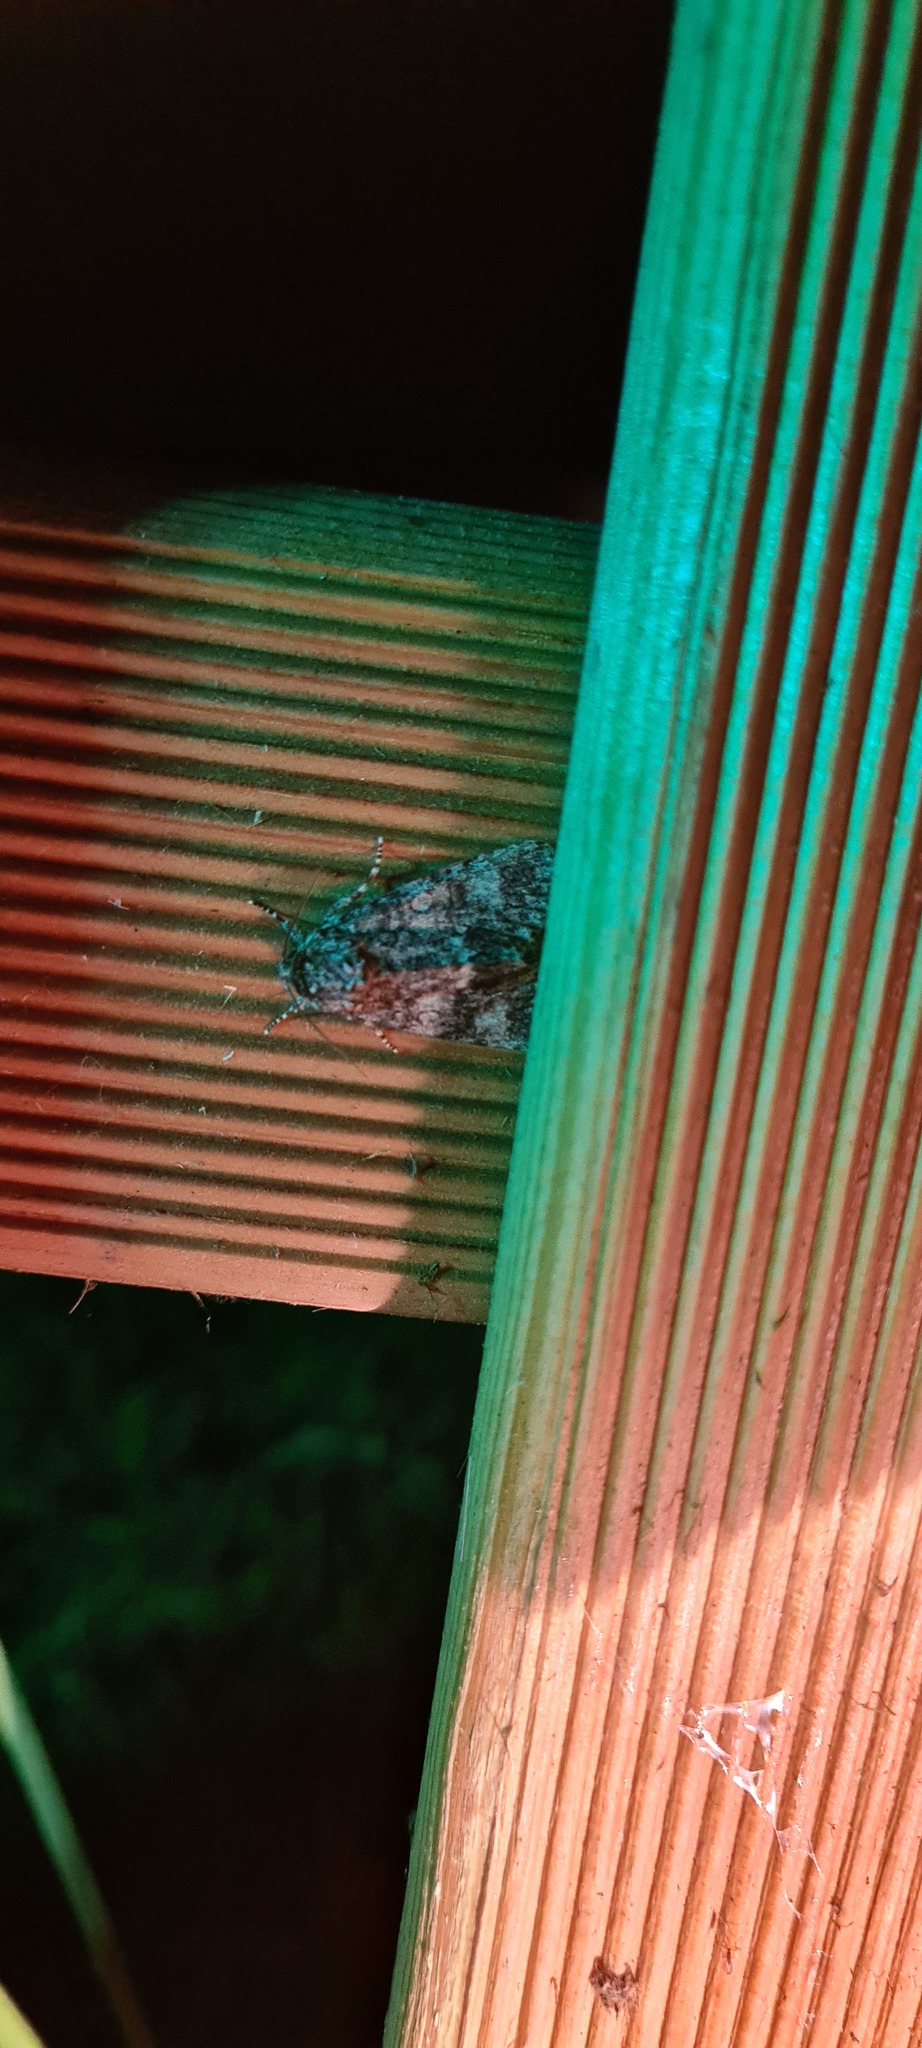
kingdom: Animalia
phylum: Arthropoda
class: Insecta
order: Lepidoptera
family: Noctuidae
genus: Acronicta
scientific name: Acronicta megacephala
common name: Poplar grey
